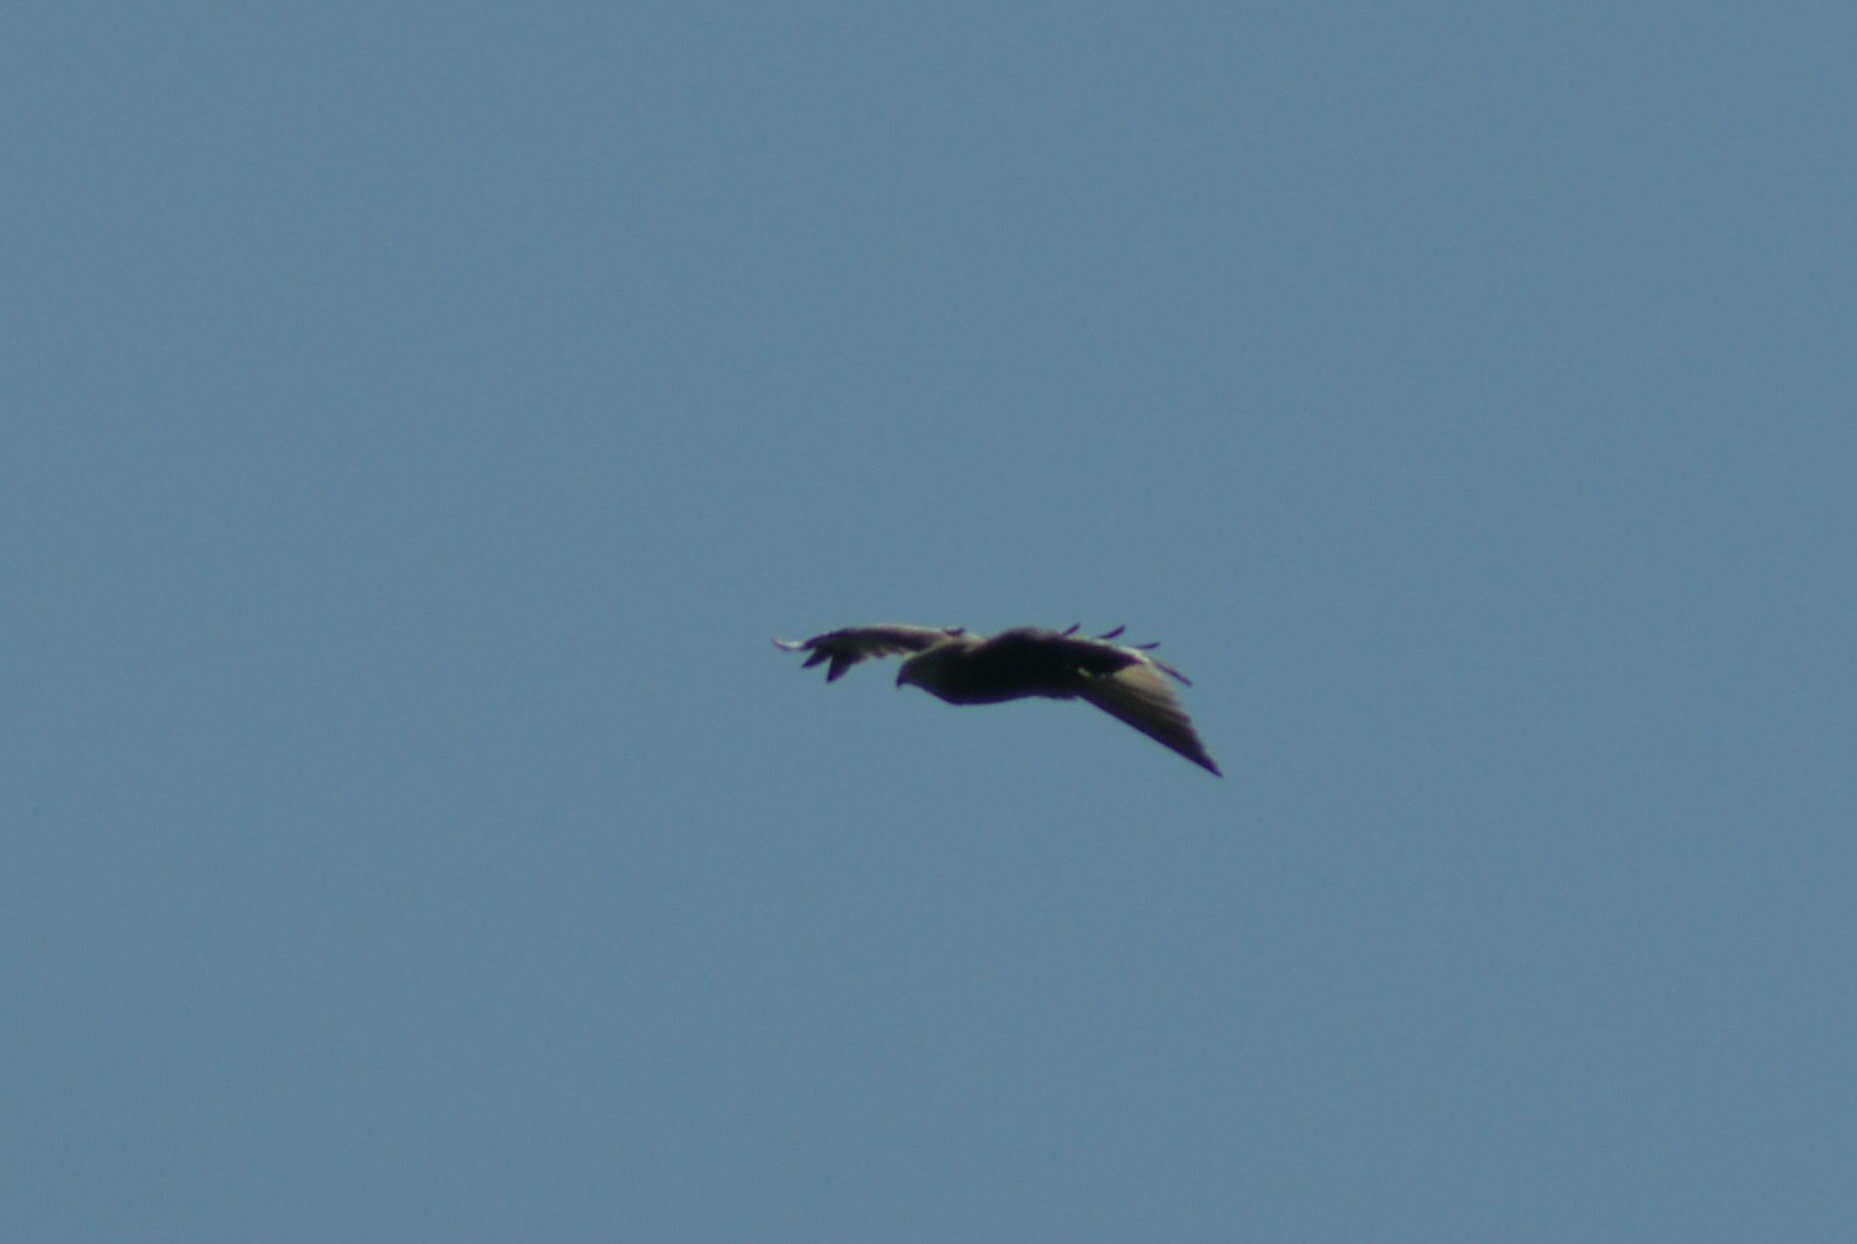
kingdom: Animalia
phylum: Chordata
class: Aves
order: Accipitriformes
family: Accipitridae
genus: Milvus
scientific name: Milvus milvus
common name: Red kite
